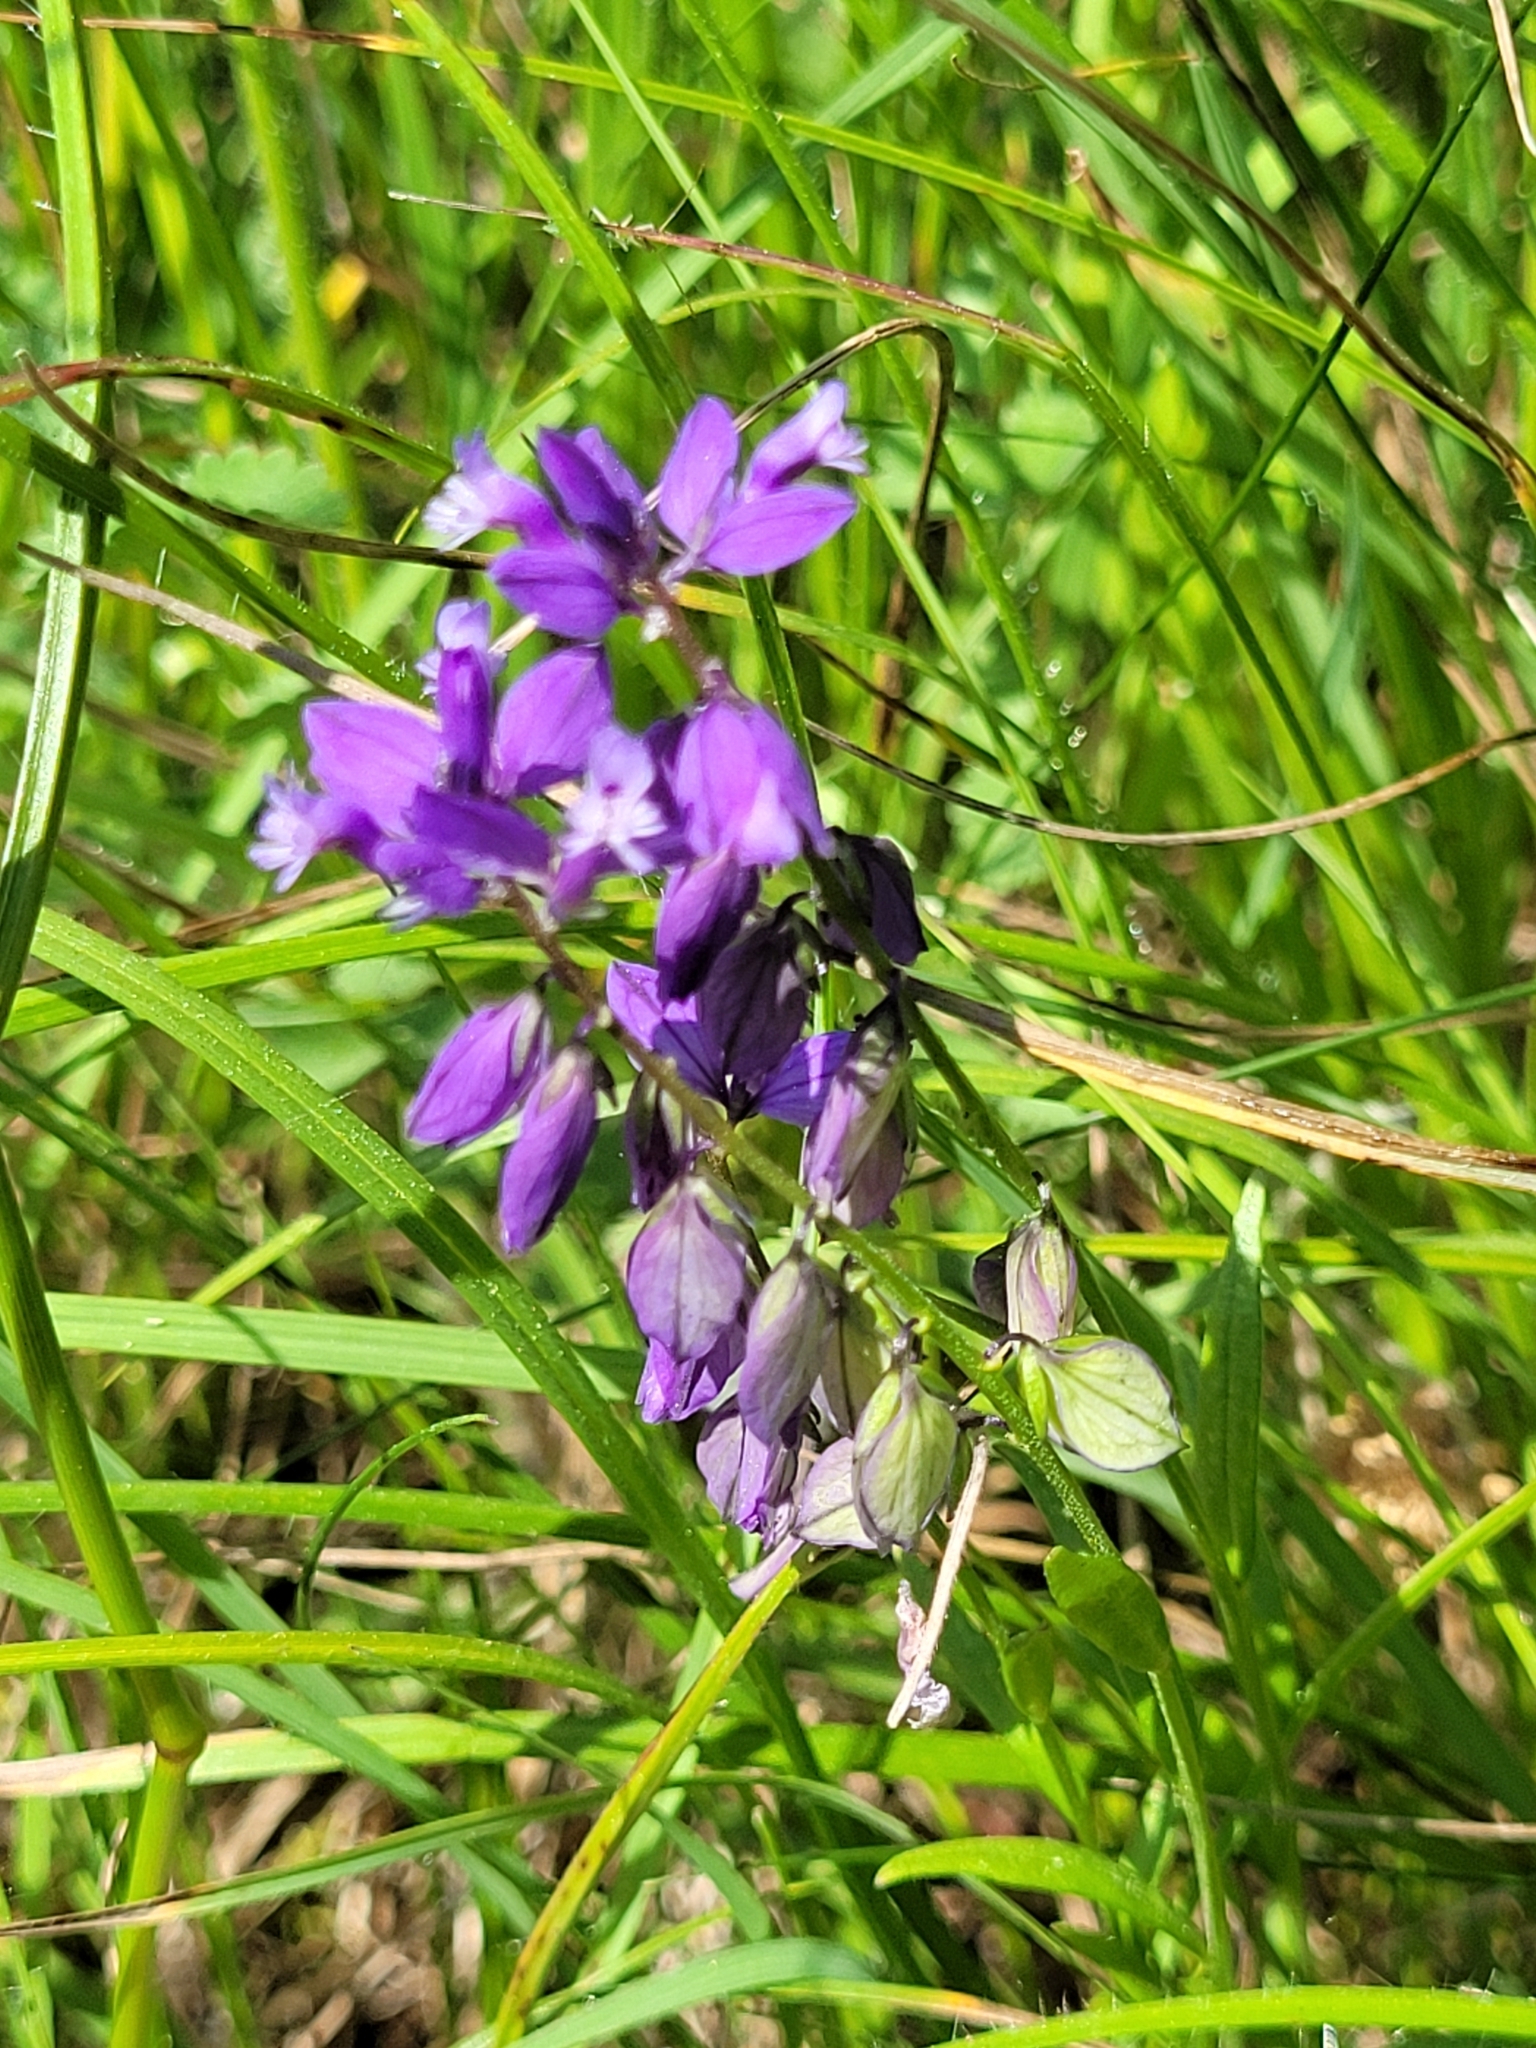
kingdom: Plantae
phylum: Tracheophyta
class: Magnoliopsida
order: Fabales
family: Polygalaceae
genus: Polygala
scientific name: Polygala vulgaris
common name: Common milkwort
